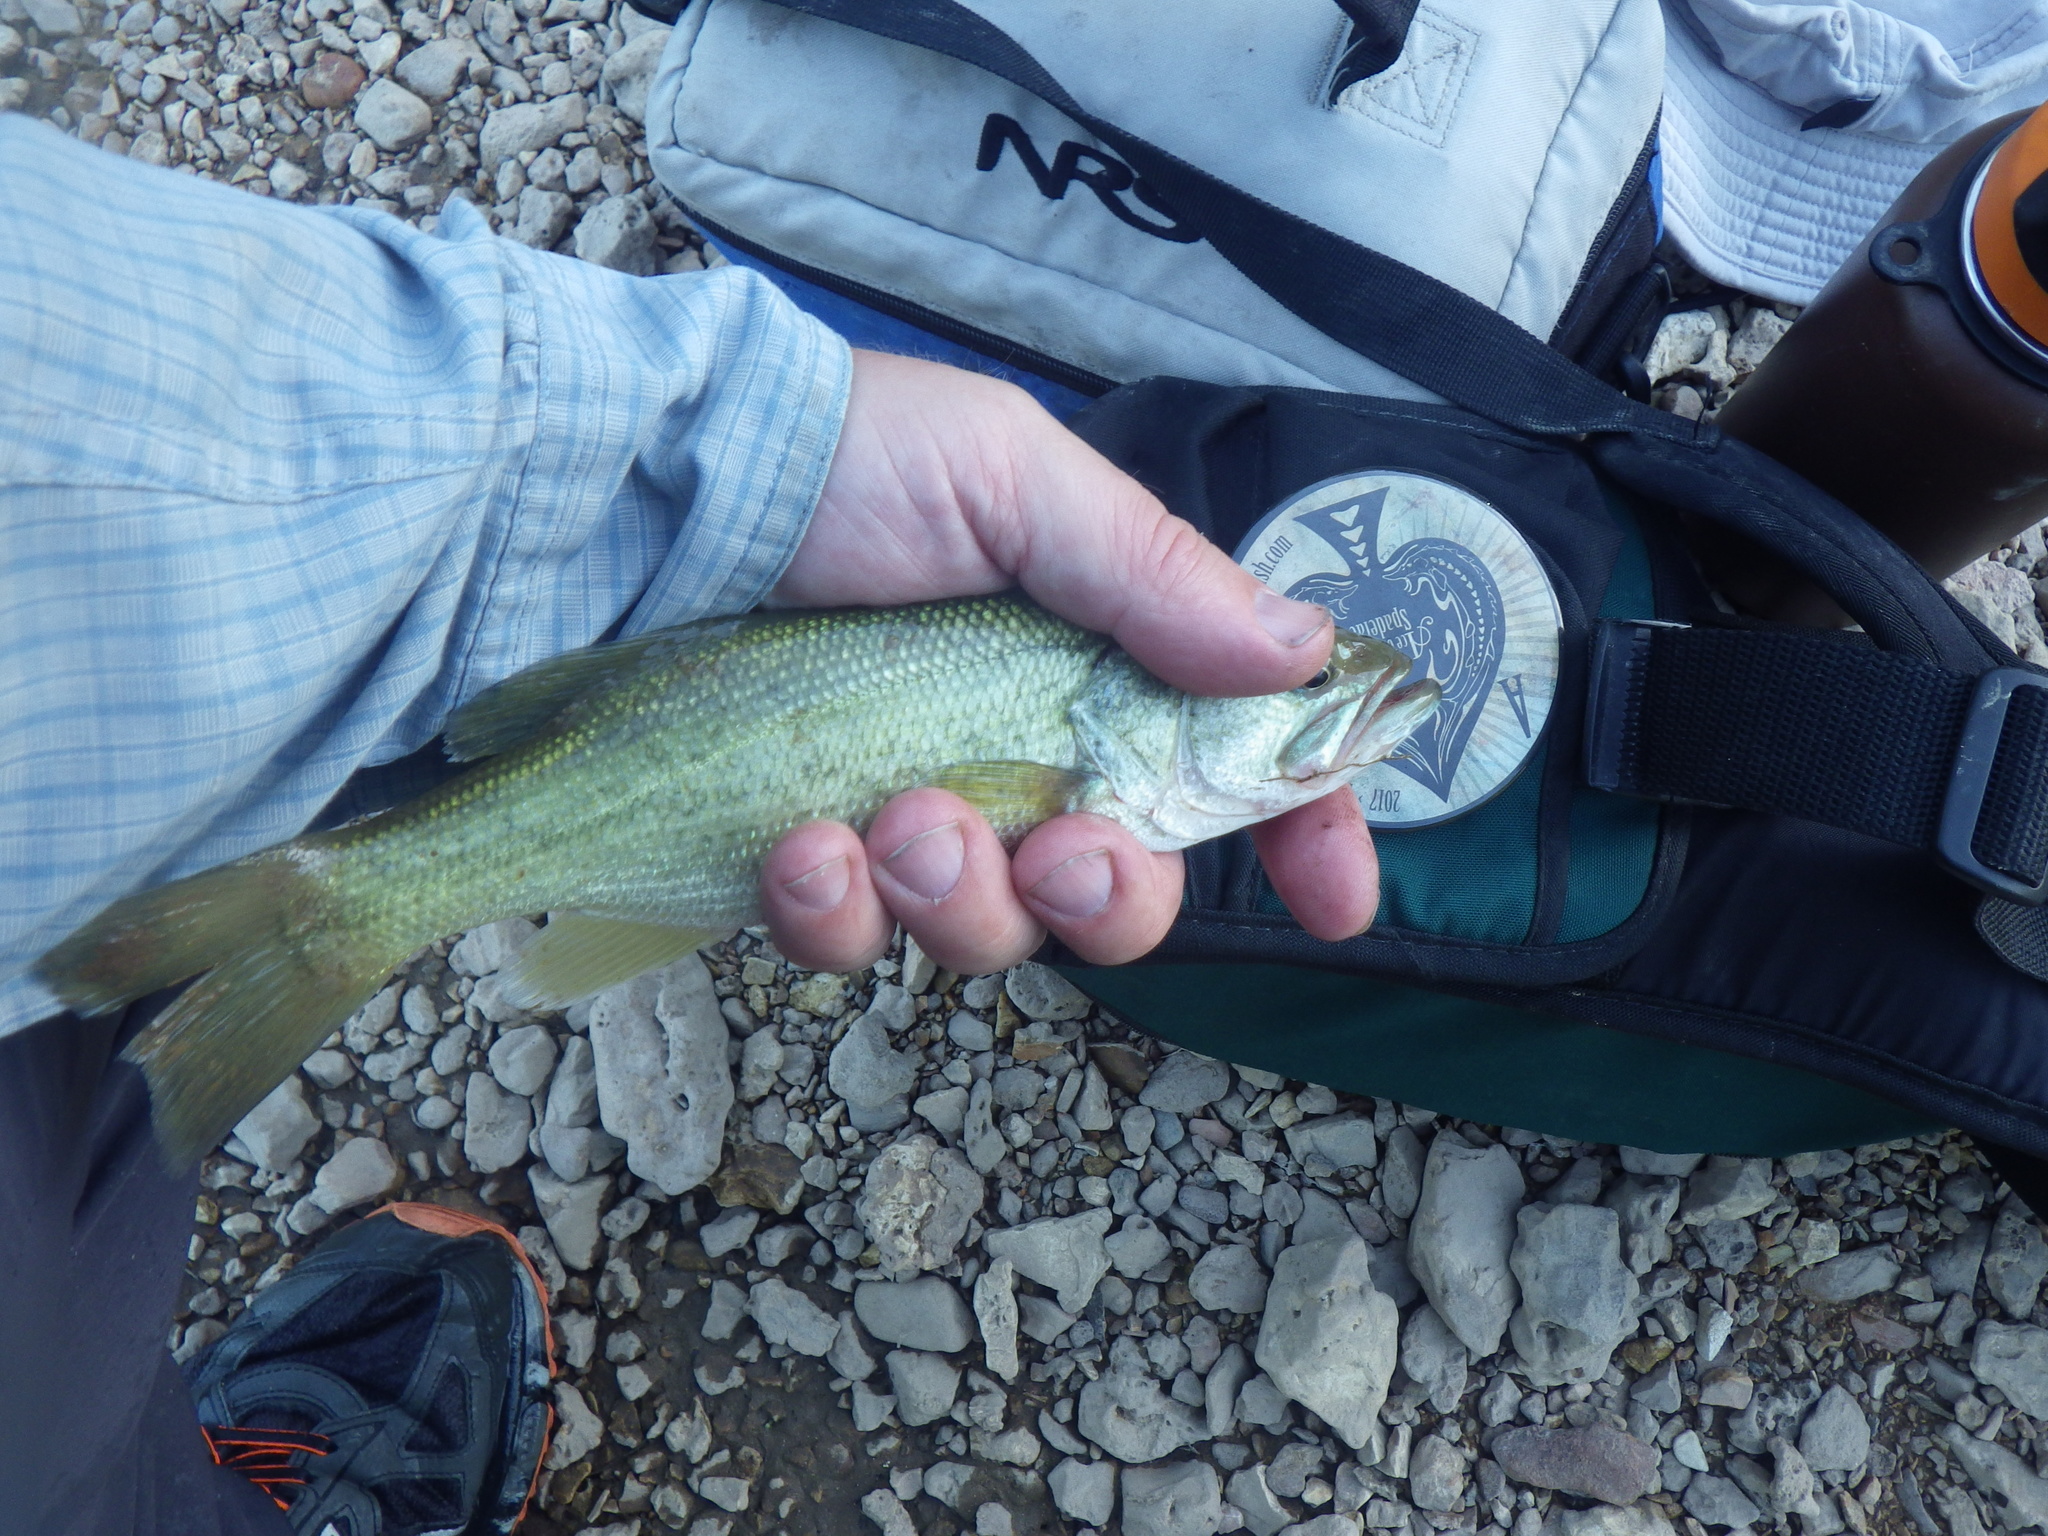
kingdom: Animalia
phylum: Chordata
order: Perciformes
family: Centrarchidae
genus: Micropterus
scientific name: Micropterus
